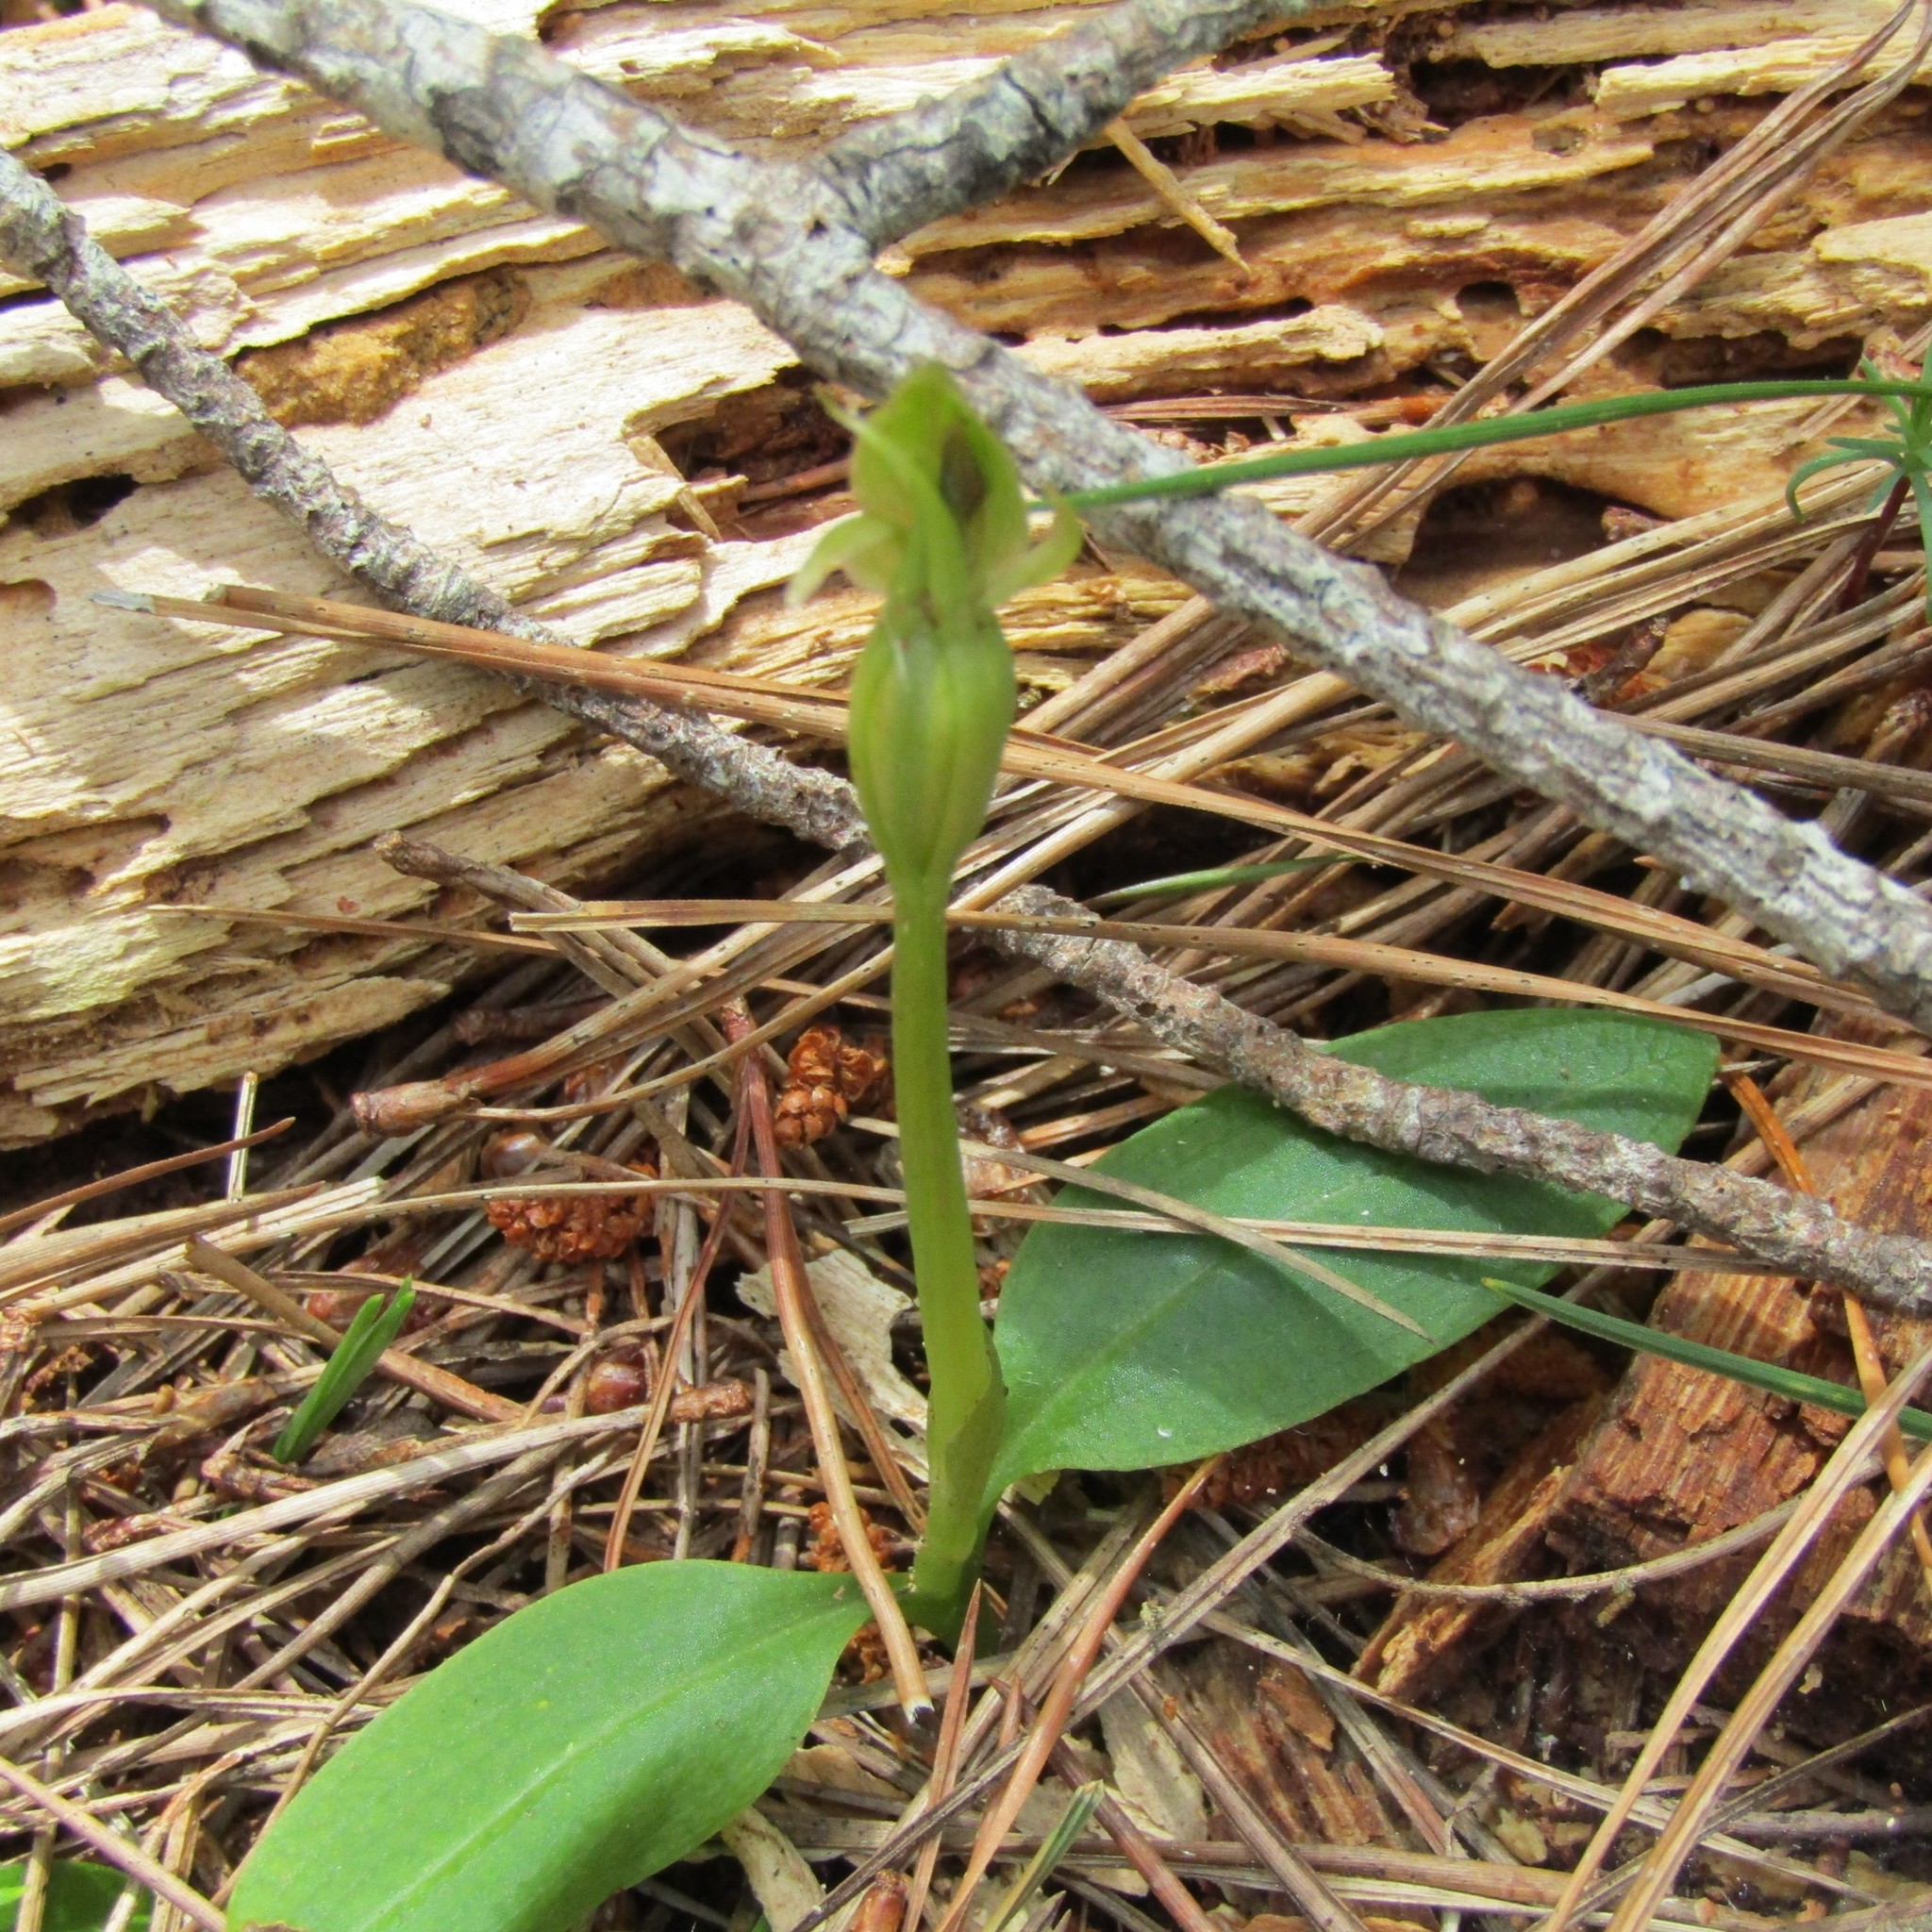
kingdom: Plantae
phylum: Tracheophyta
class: Liliopsida
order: Asparagales
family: Orchidaceae
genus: Chiloglottis
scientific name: Chiloglottis cornuta
